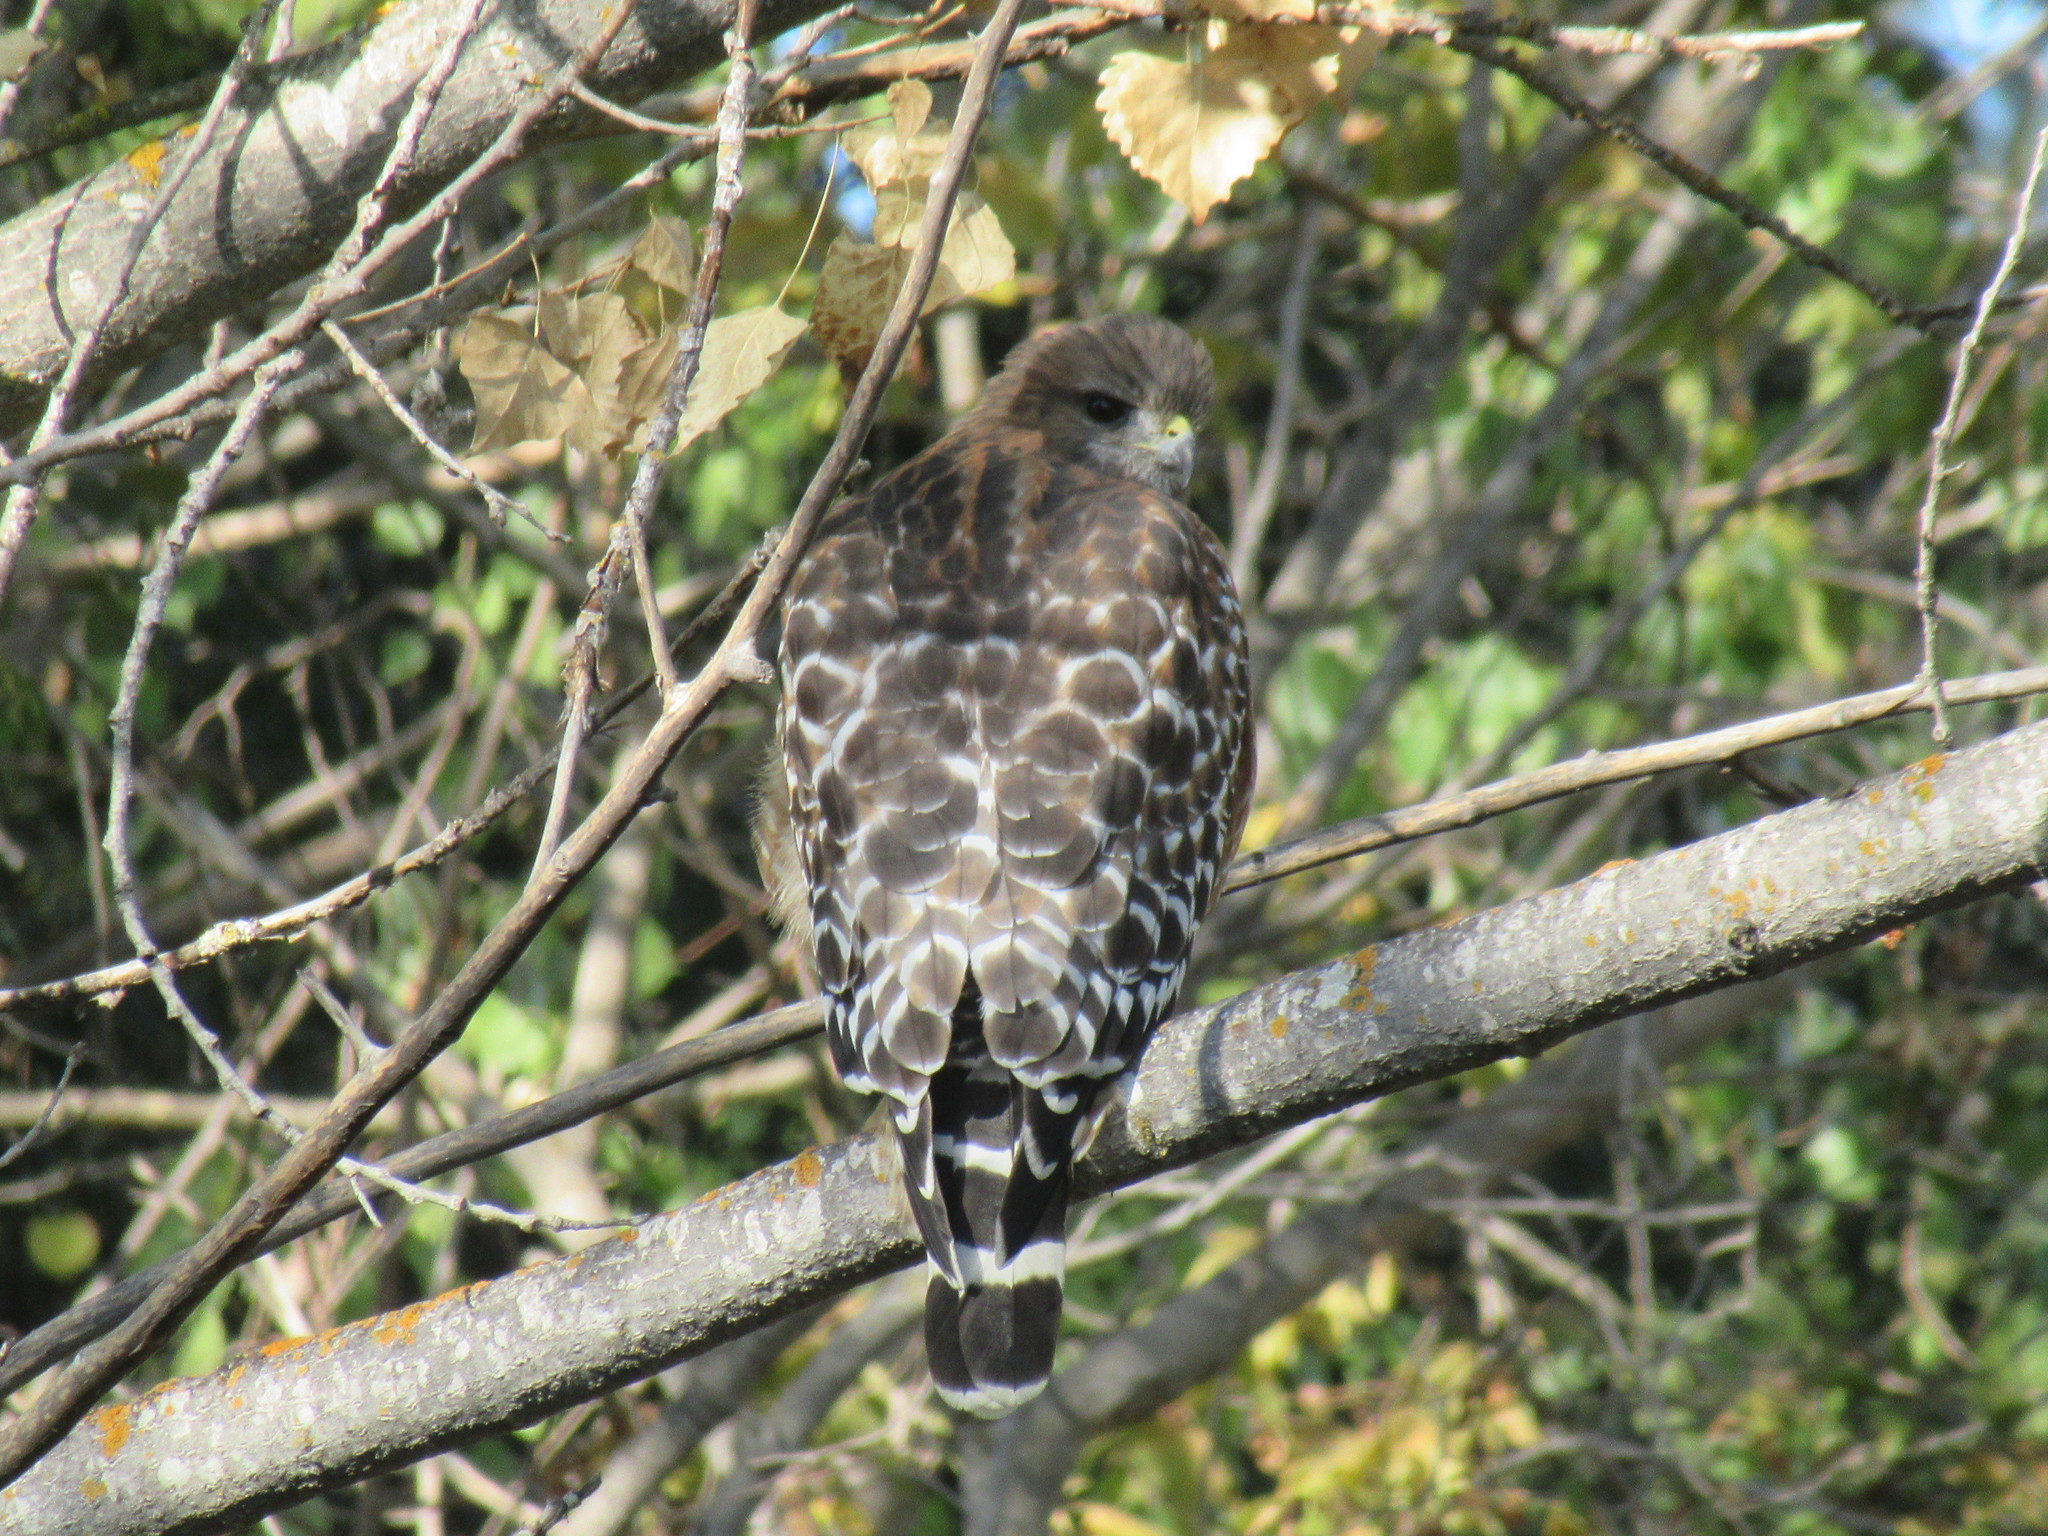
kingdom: Animalia
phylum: Chordata
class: Aves
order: Accipitriformes
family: Accipitridae
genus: Buteo
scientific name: Buteo lineatus
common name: Red-shouldered hawk
